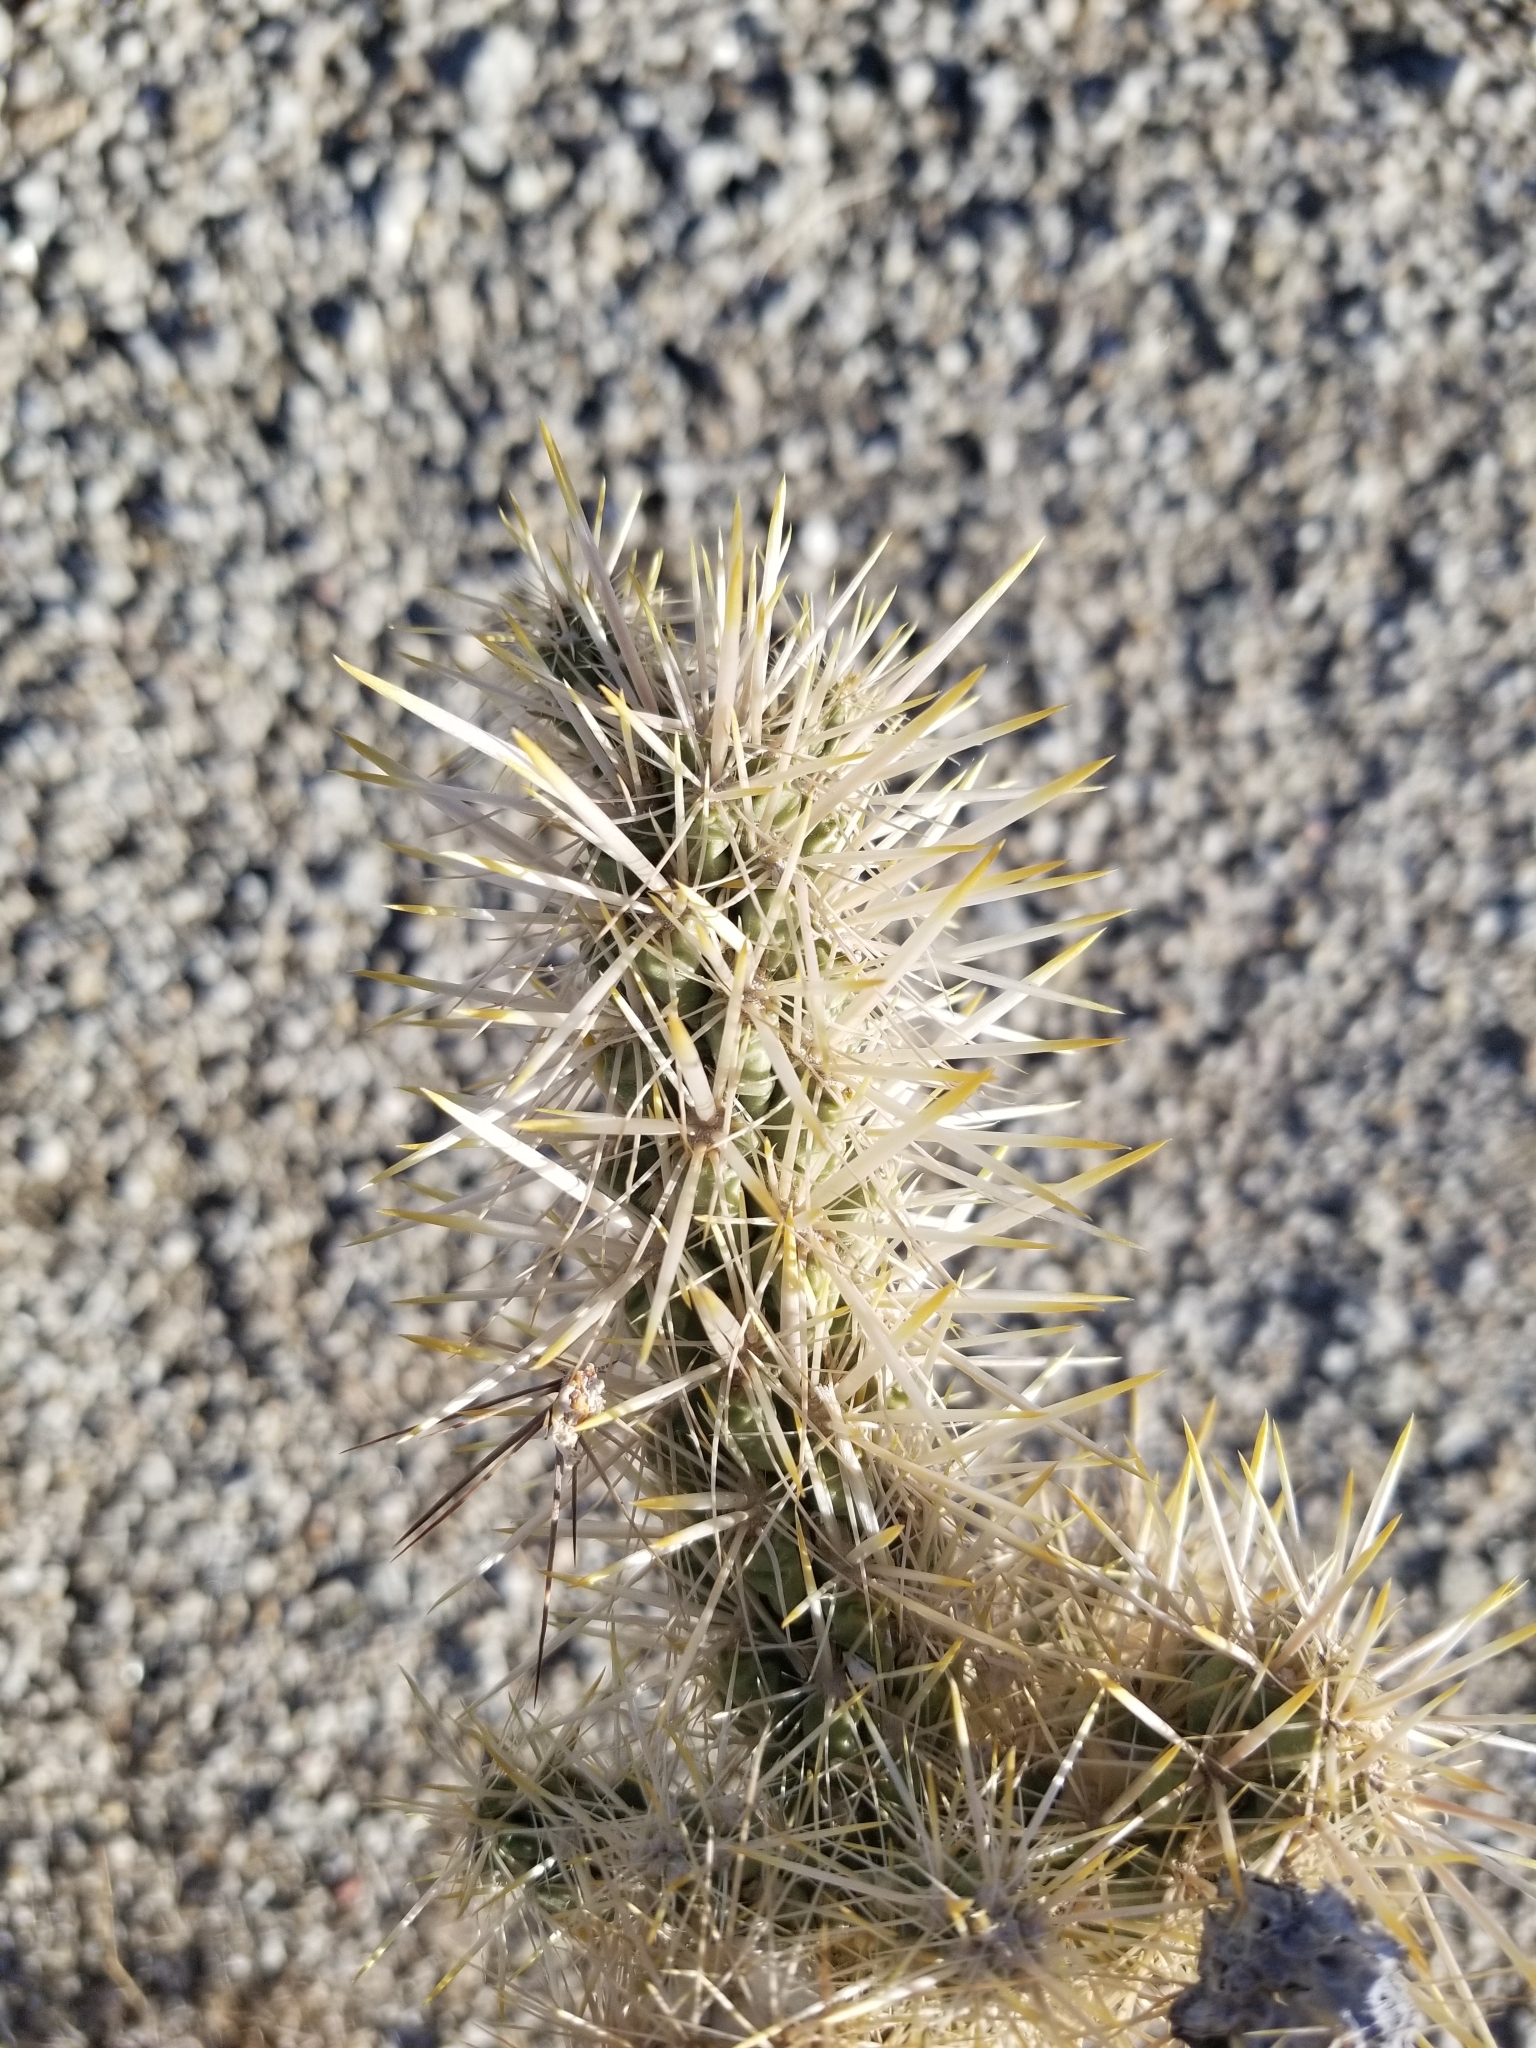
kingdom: Plantae
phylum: Tracheophyta
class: Magnoliopsida
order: Caryophyllales
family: Cactaceae
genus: Cylindropuntia
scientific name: Cylindropuntia echinocarpa
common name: Ground cholla
